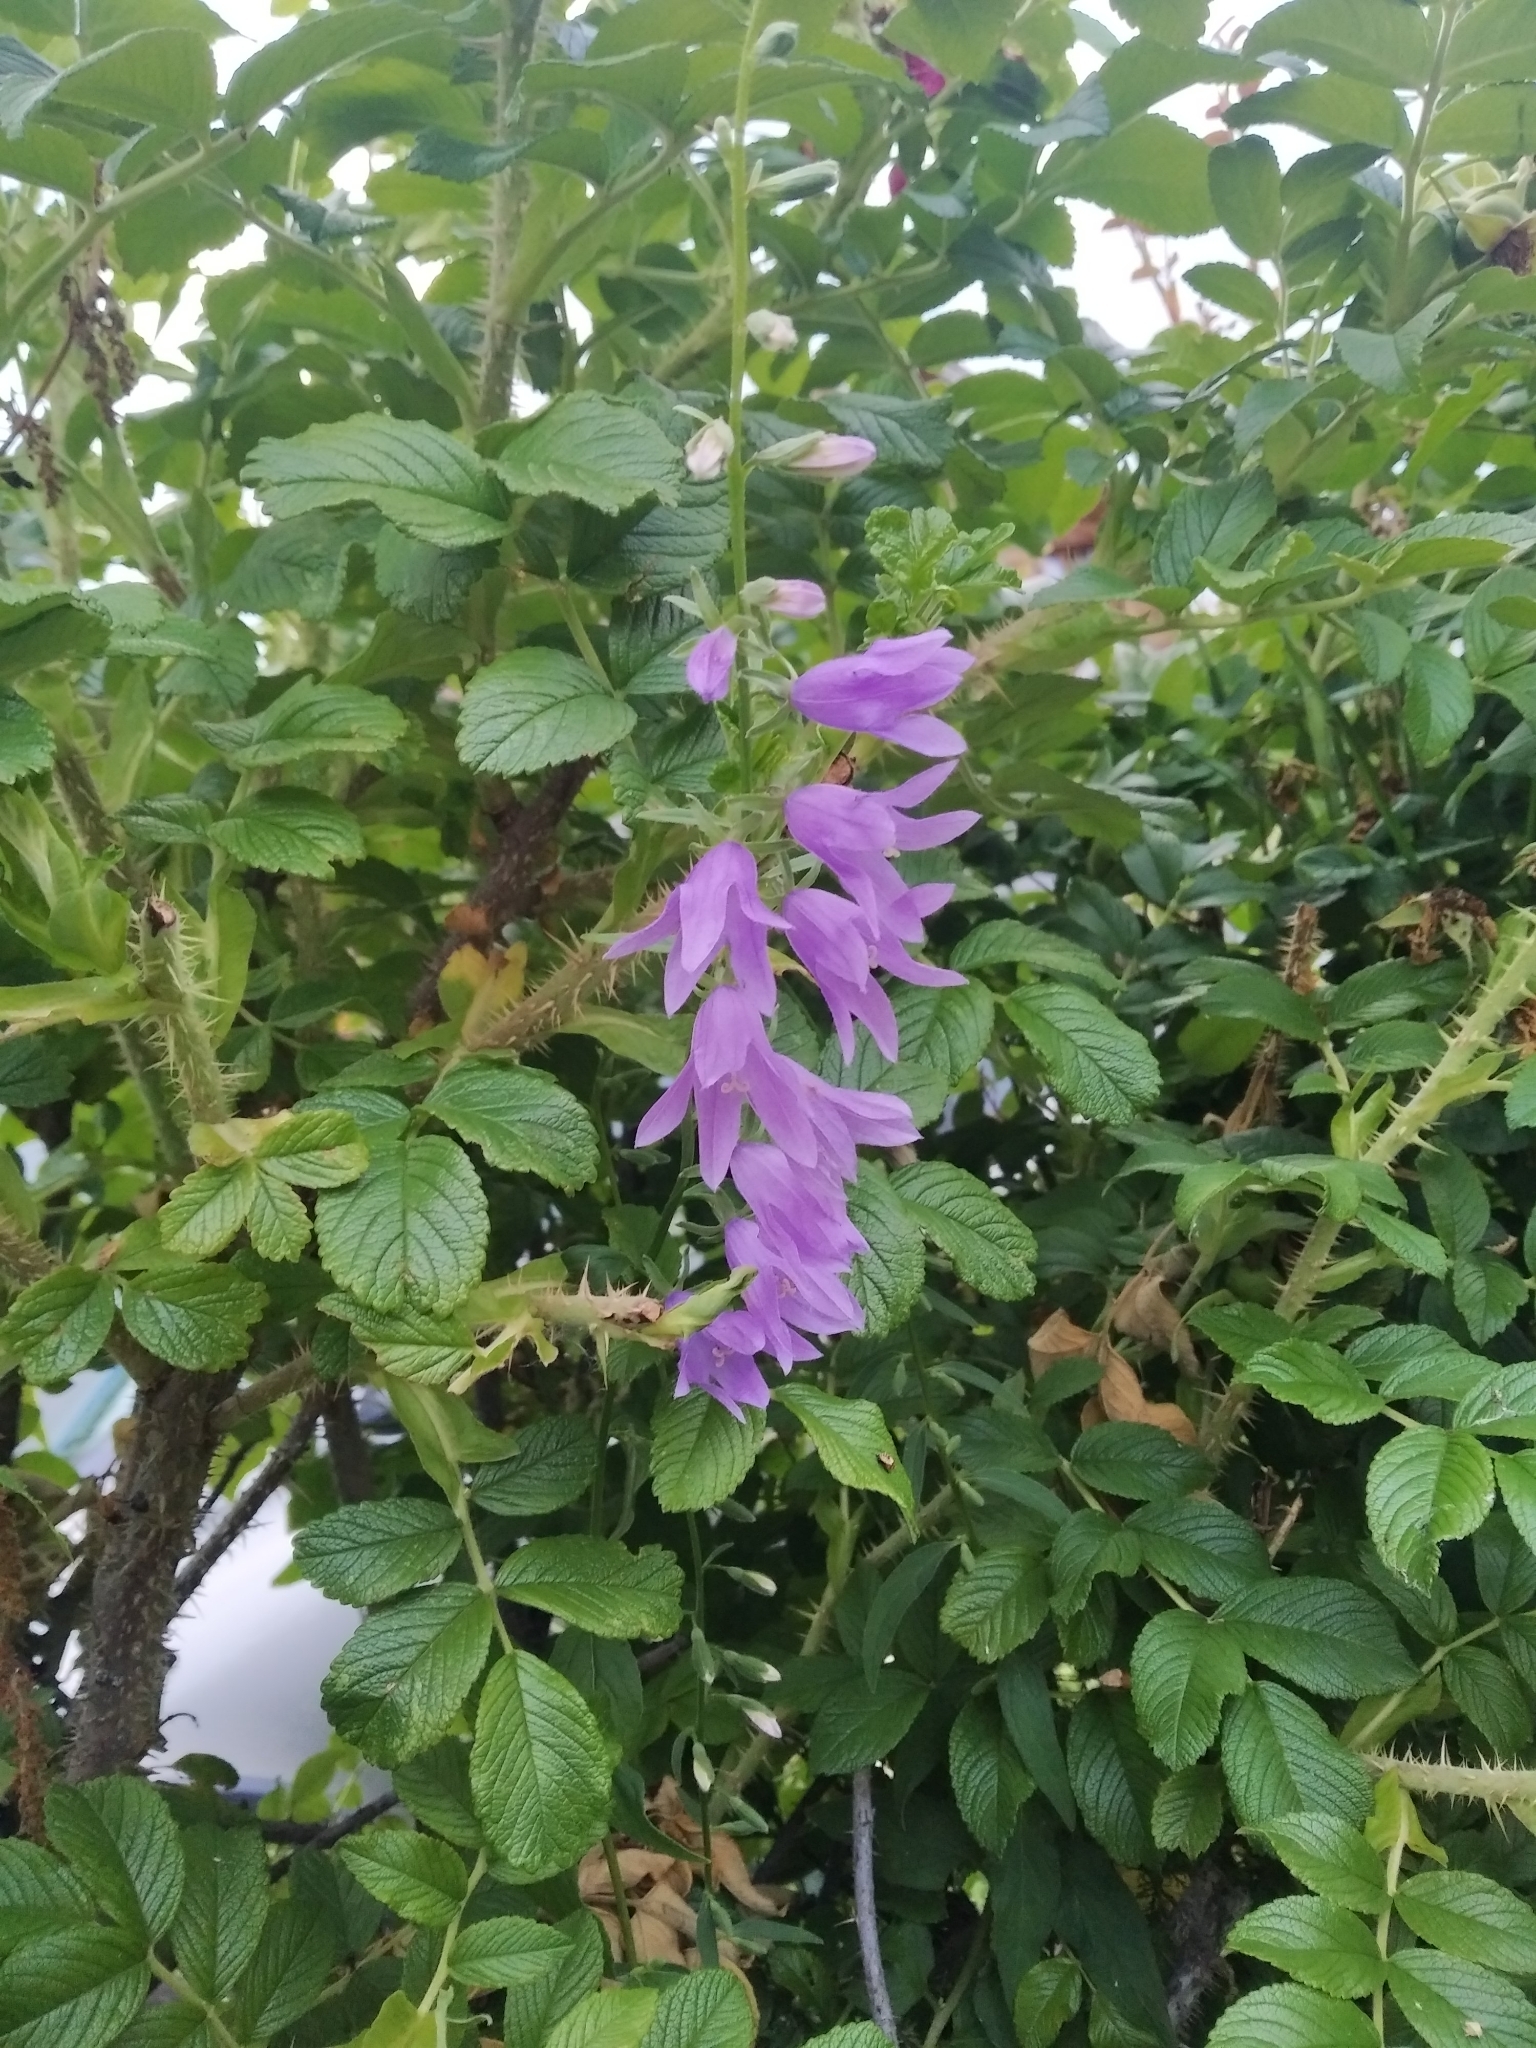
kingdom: Plantae
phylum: Tracheophyta
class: Magnoliopsida
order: Asterales
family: Campanulaceae
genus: Campanula
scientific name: Campanula rapunculoides
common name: Creeping bellflower
